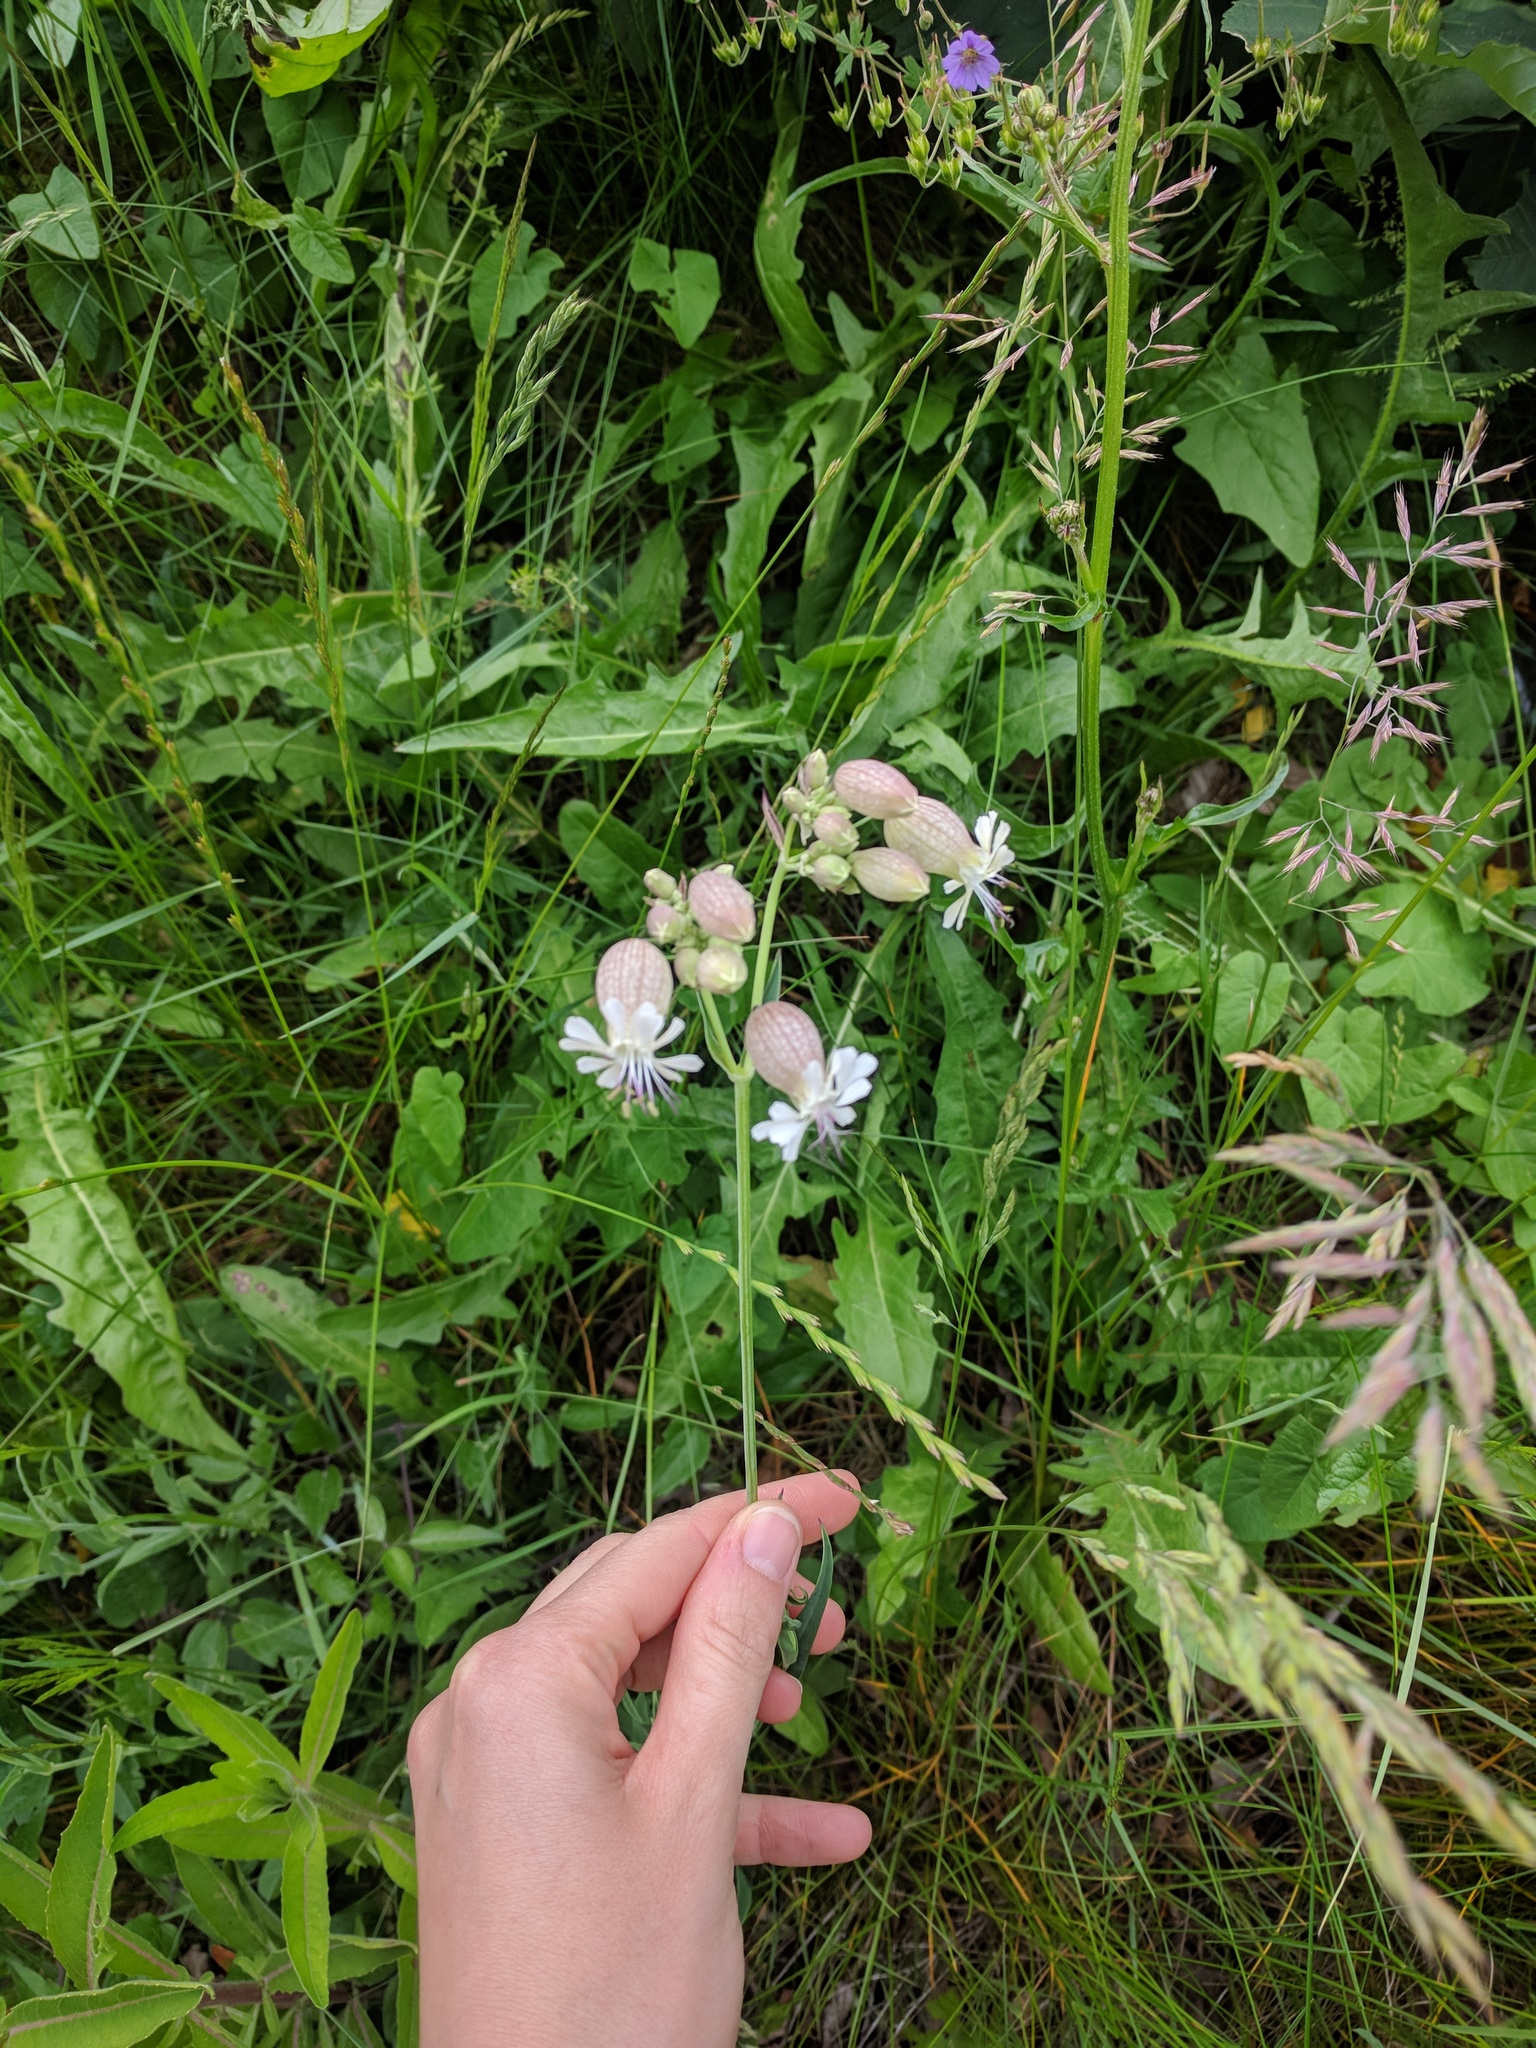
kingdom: Plantae
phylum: Tracheophyta
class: Magnoliopsida
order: Caryophyllales
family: Caryophyllaceae
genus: Silene
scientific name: Silene vulgaris
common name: Bladder campion
